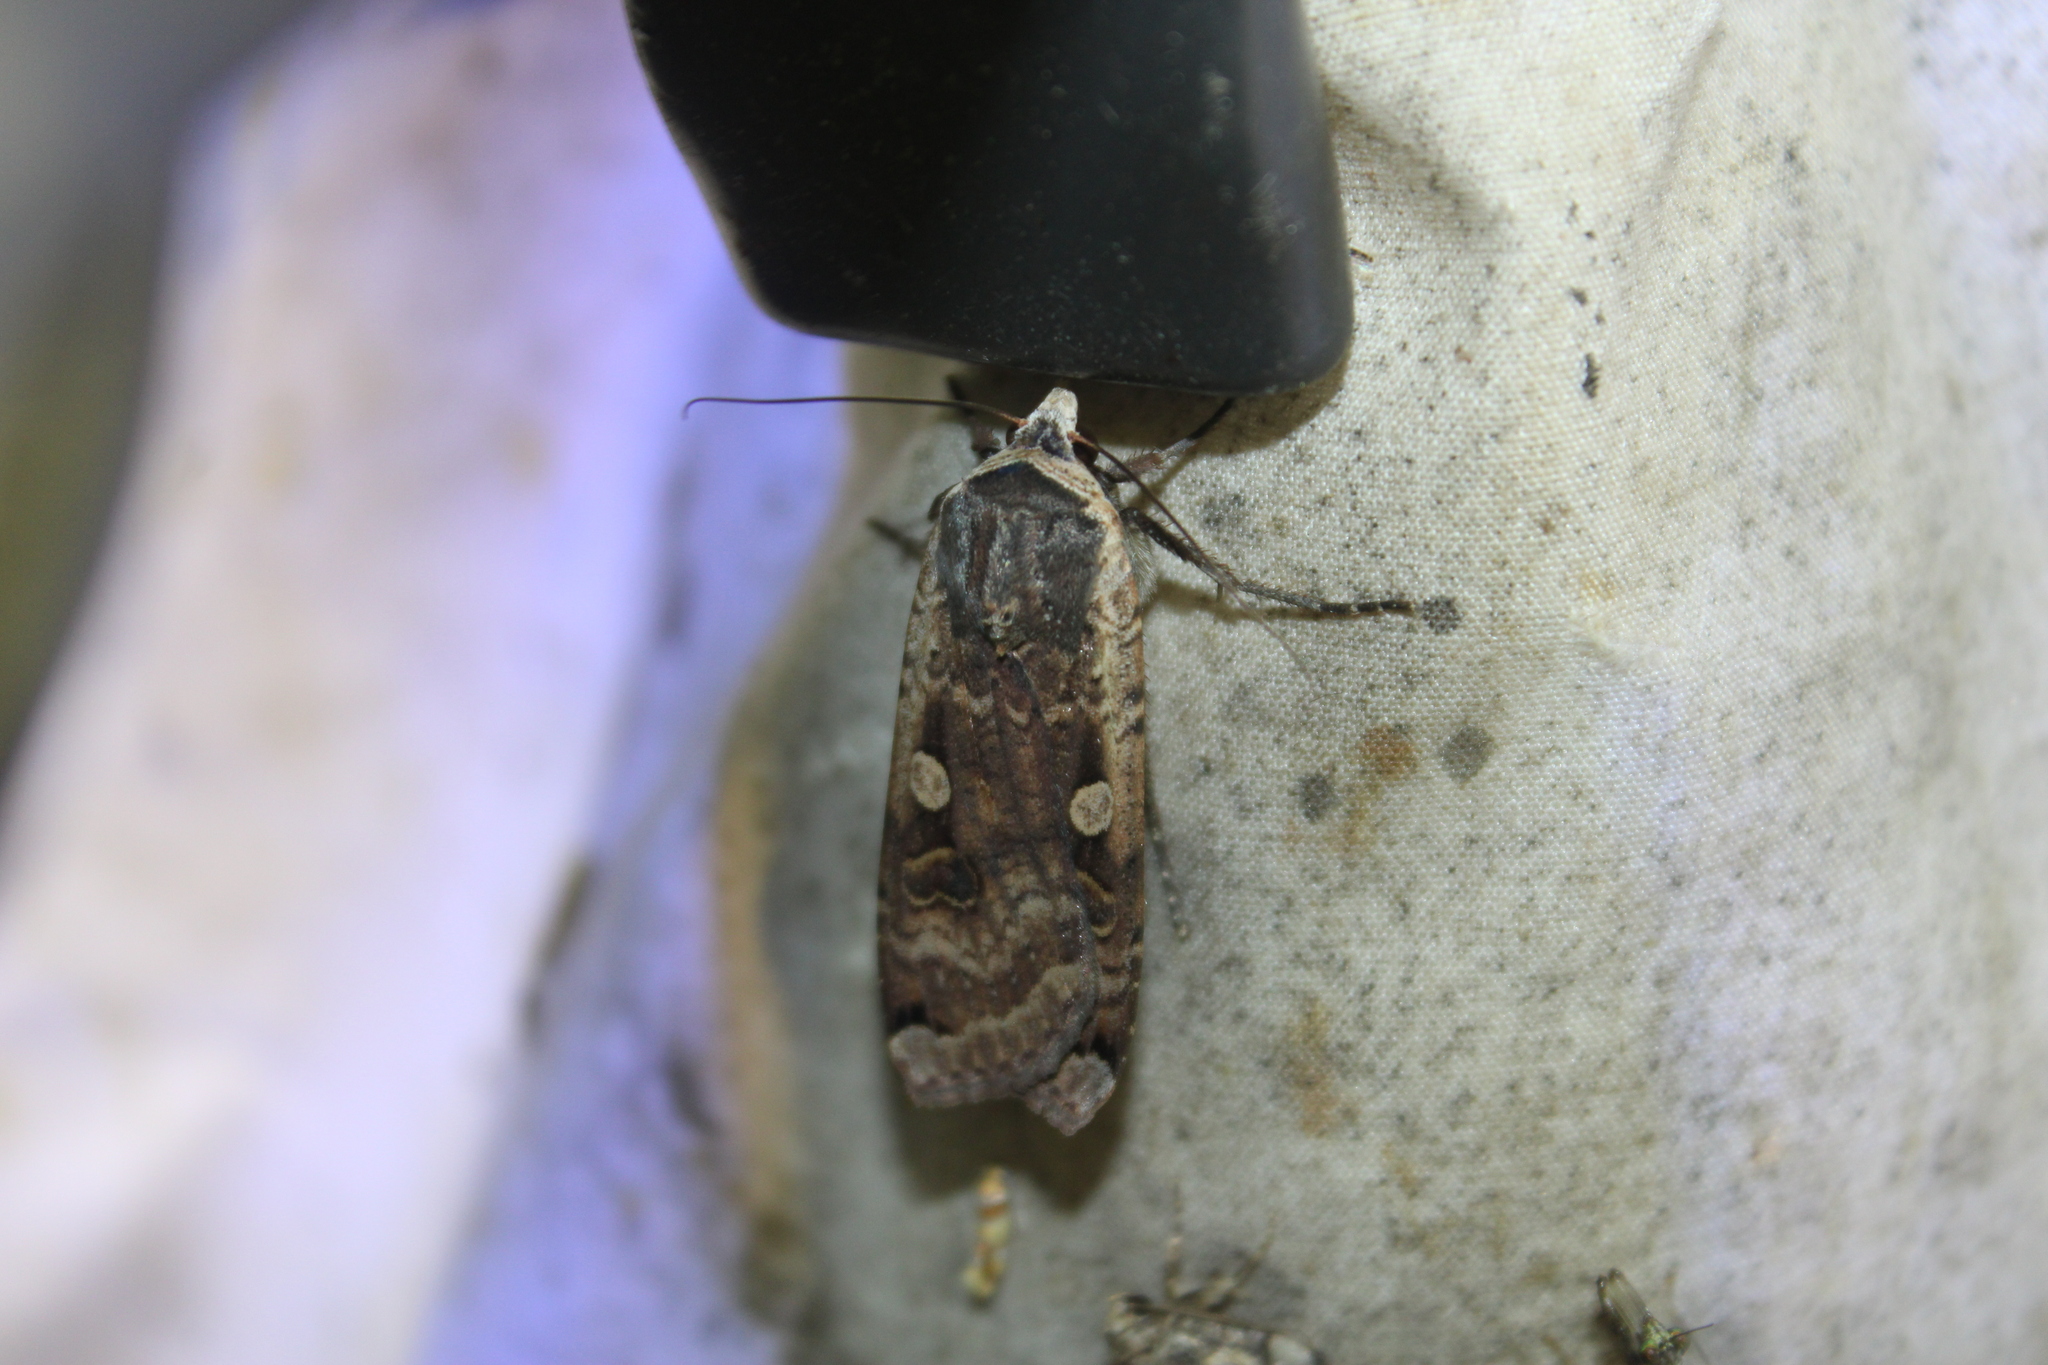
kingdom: Animalia
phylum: Arthropoda
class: Insecta
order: Lepidoptera
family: Noctuidae
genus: Noctua
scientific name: Noctua pronuba
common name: Large yellow underwing
